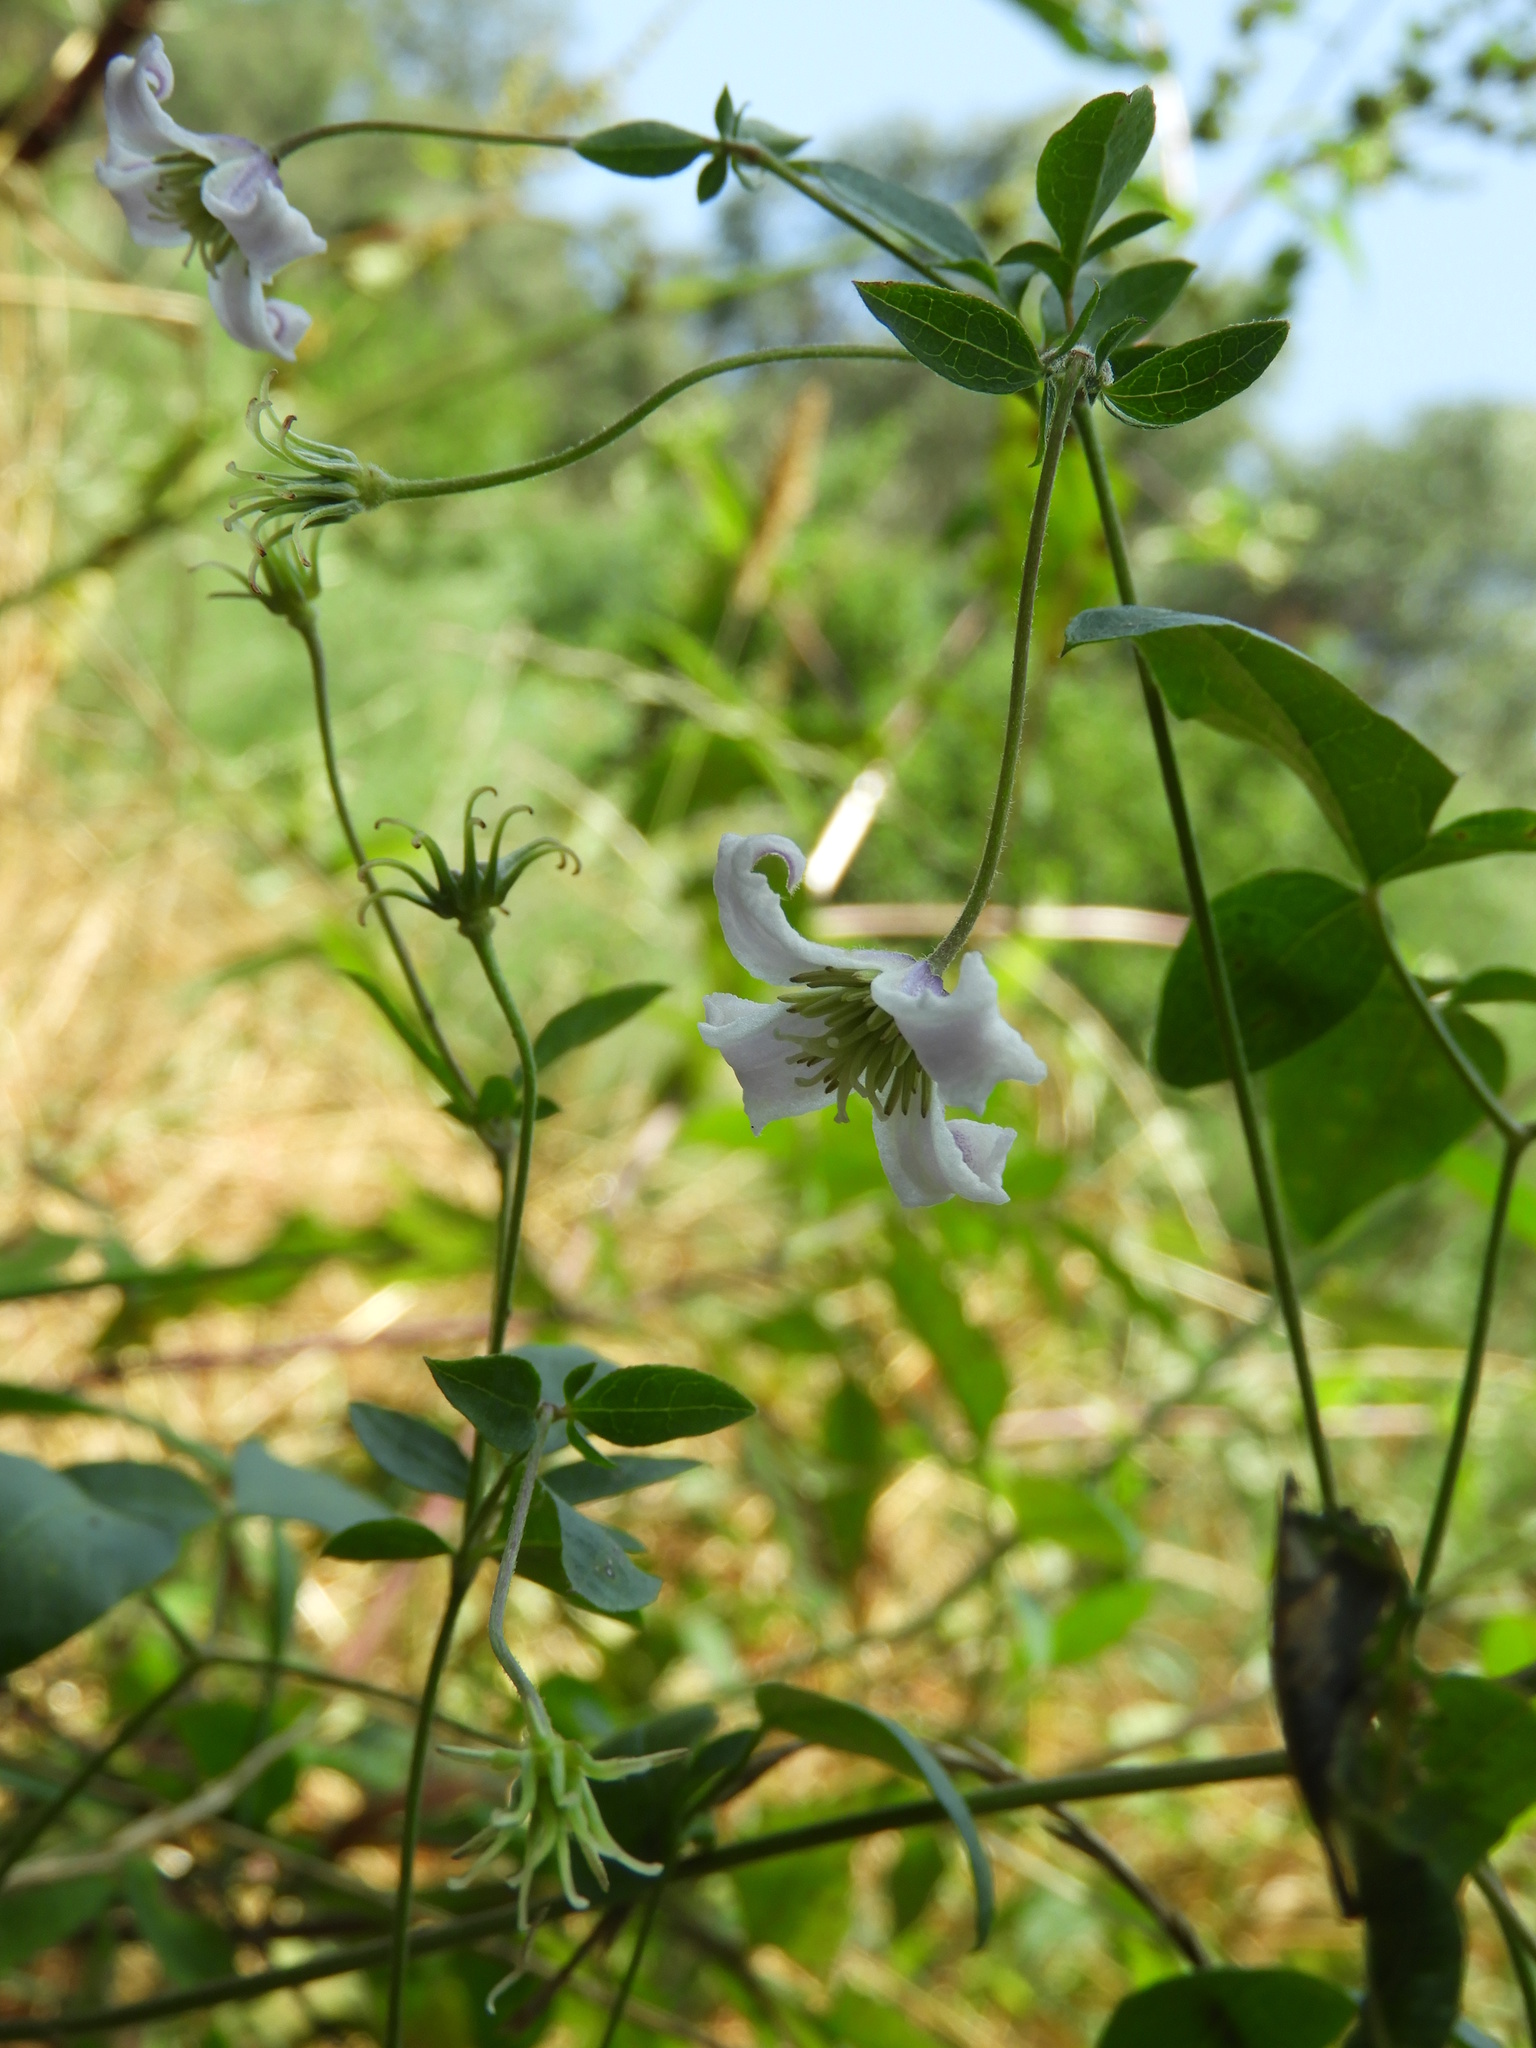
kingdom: Plantae
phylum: Tracheophyta
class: Magnoliopsida
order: Ranunculales
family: Ranunculaceae
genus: Clematis
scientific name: Clematis viticella
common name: Purple clematis
